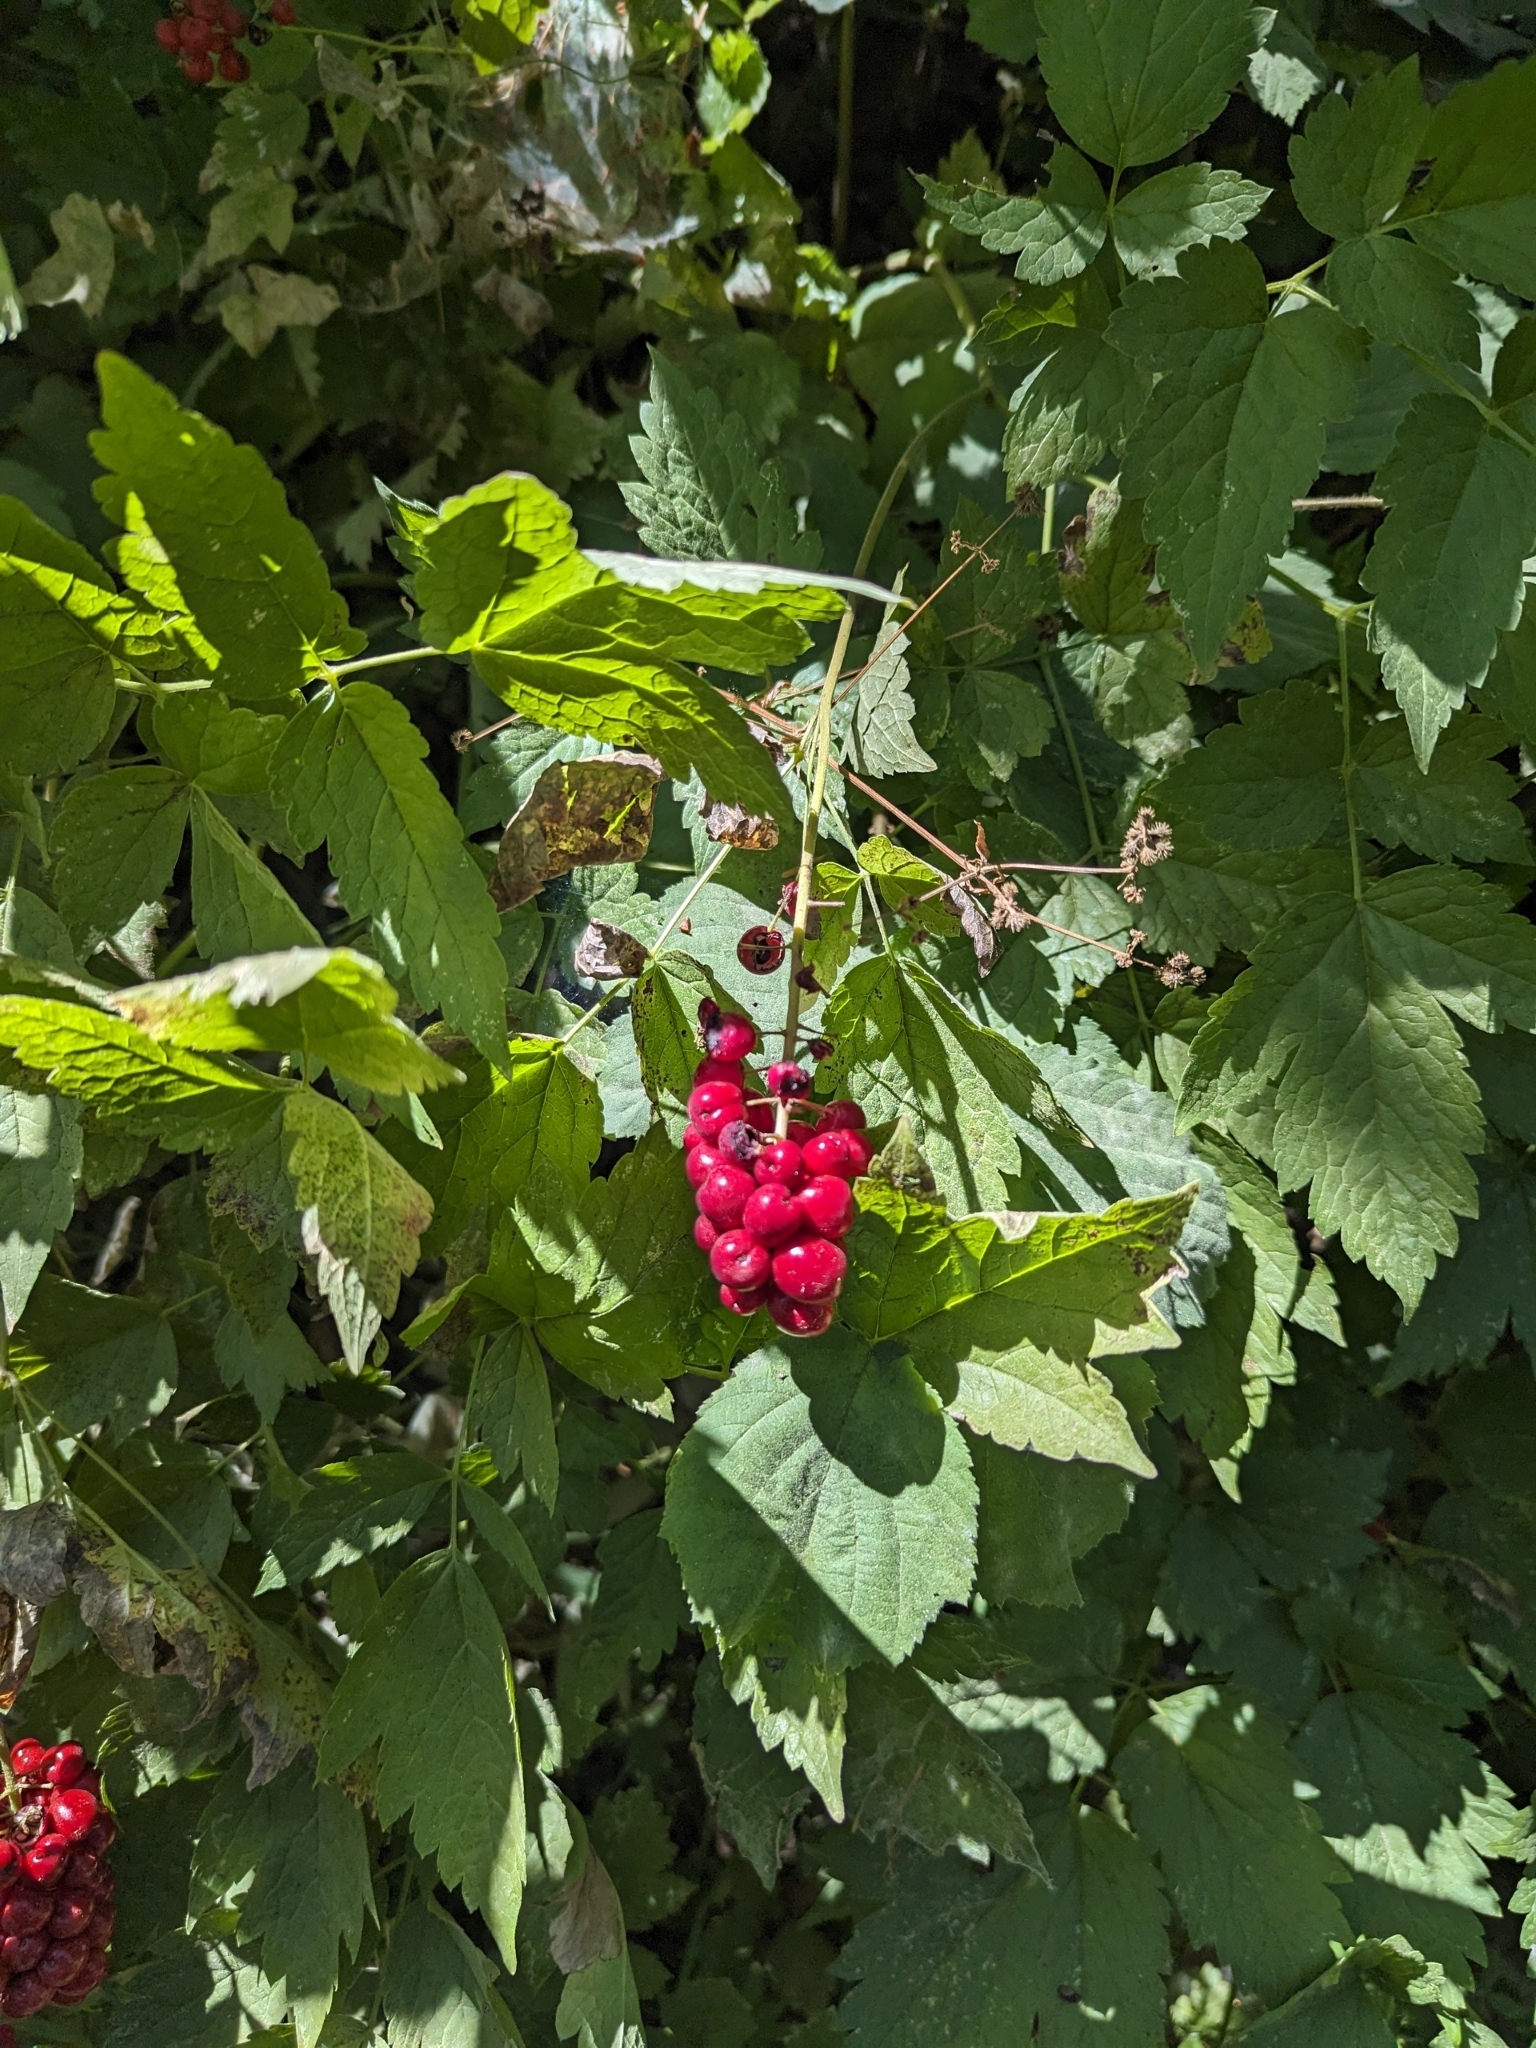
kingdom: Plantae
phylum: Tracheophyta
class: Magnoliopsida
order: Ranunculales
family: Ranunculaceae
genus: Actaea
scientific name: Actaea rubra
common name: Red baneberry
